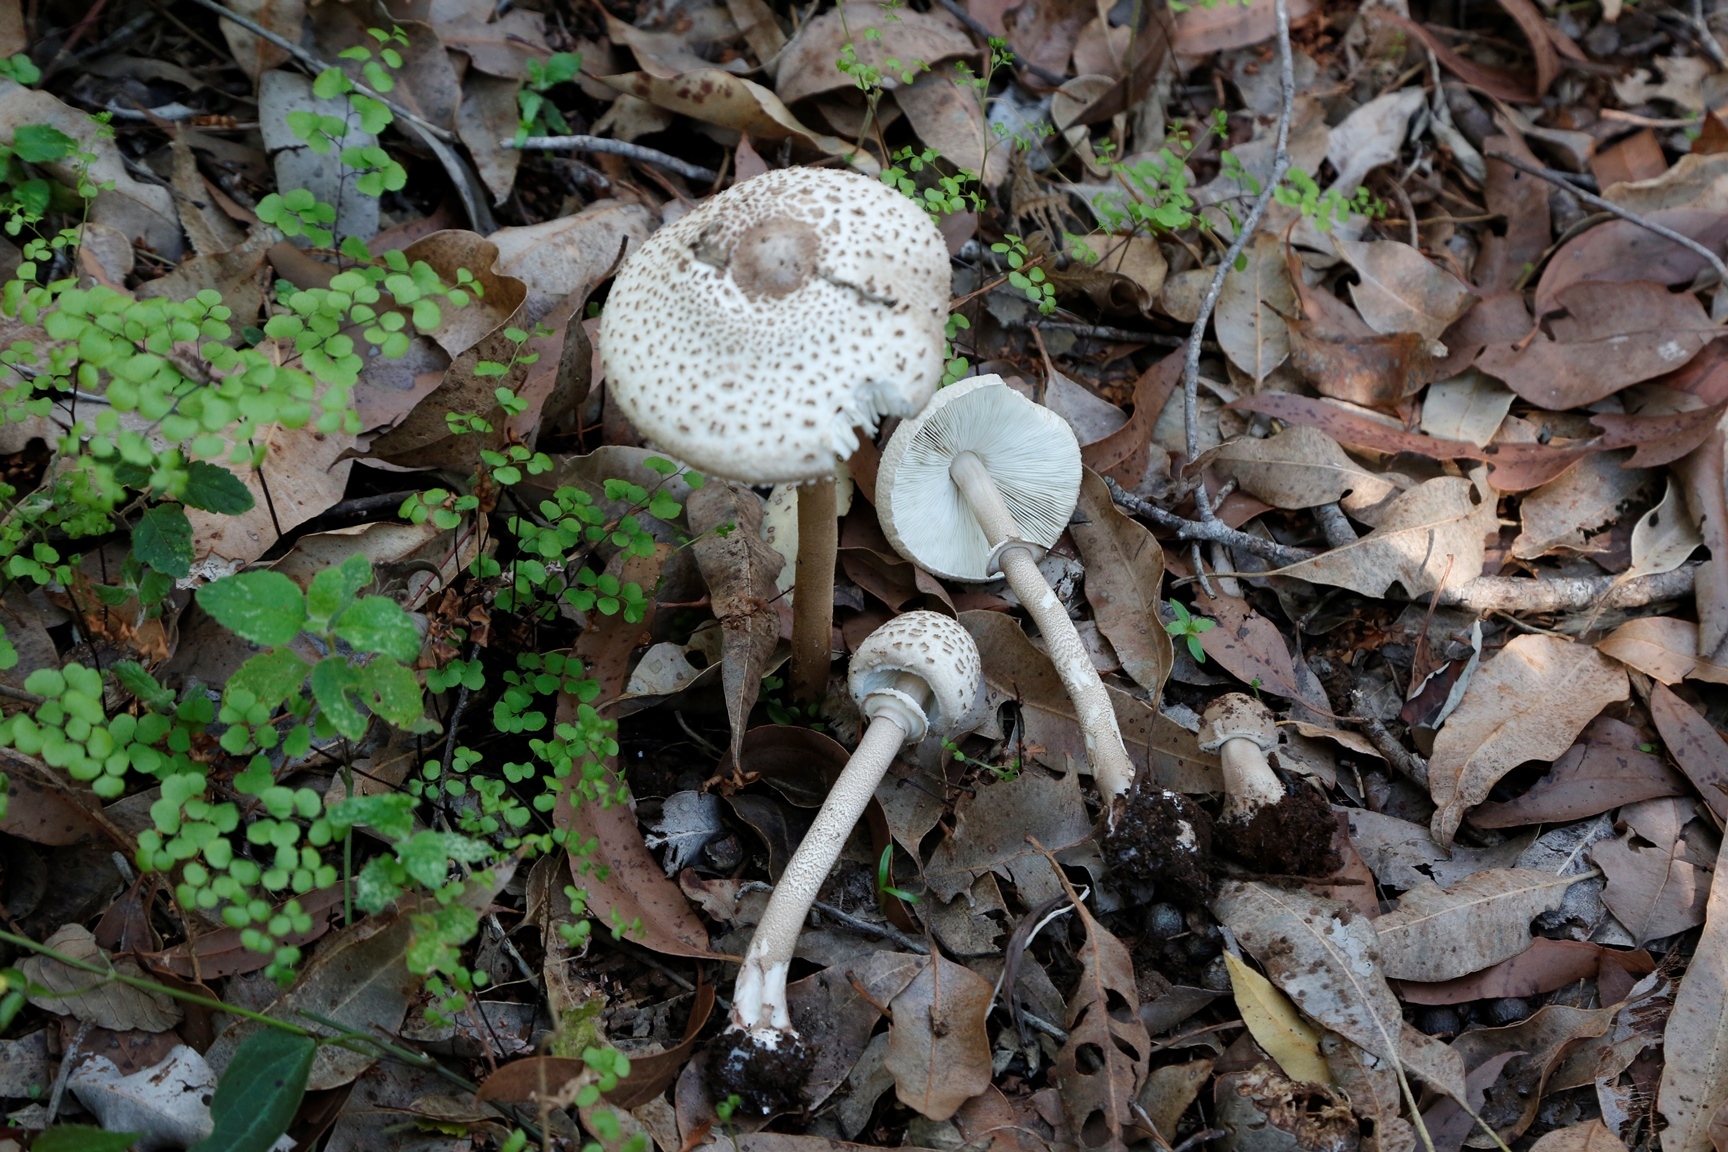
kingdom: Fungi
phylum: Basidiomycota
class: Agaricomycetes
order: Agaricales
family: Agaricaceae
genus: Macrolepiota
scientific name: Macrolepiota clelandii
